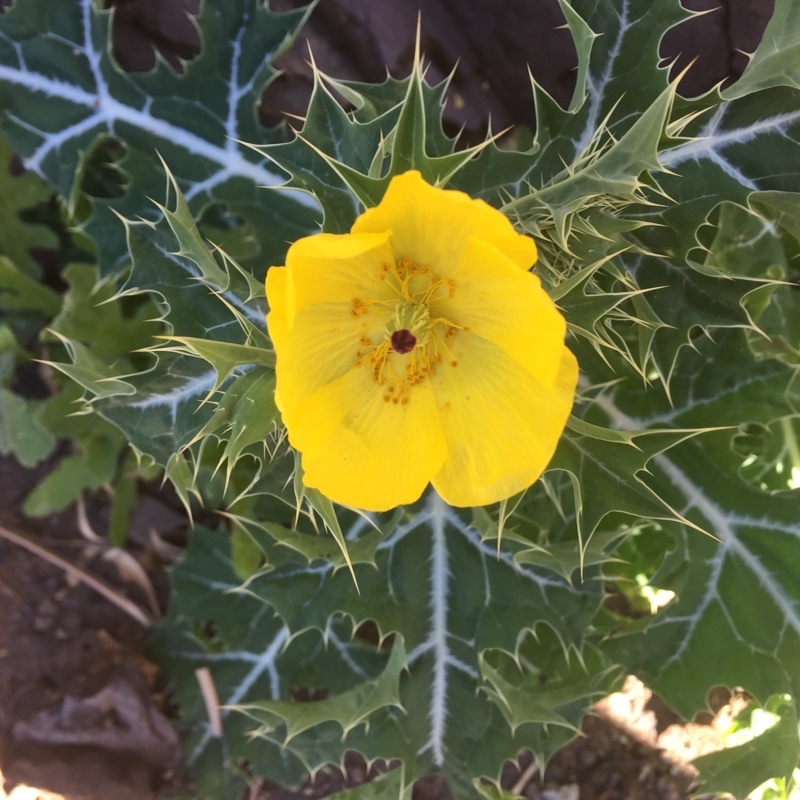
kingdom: Plantae
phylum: Tracheophyta
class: Magnoliopsida
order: Ranunculales
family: Papaveraceae
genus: Argemone
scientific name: Argemone mexicana
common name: Mexican poppy
